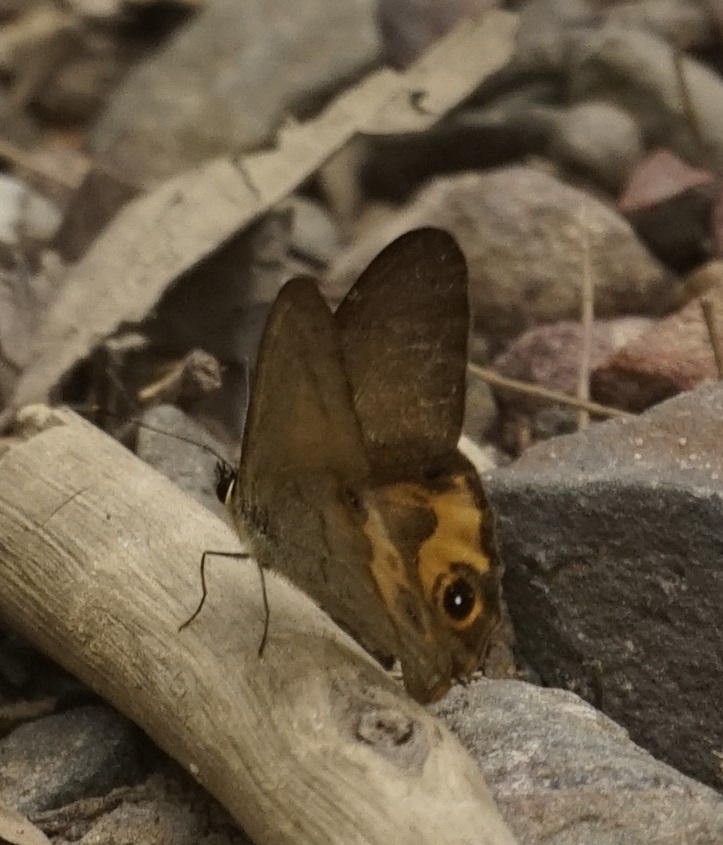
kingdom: Animalia
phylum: Arthropoda
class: Insecta
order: Lepidoptera
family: Nymphalidae
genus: Hypocysta
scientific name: Hypocysta metirius
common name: Brown ringlet
